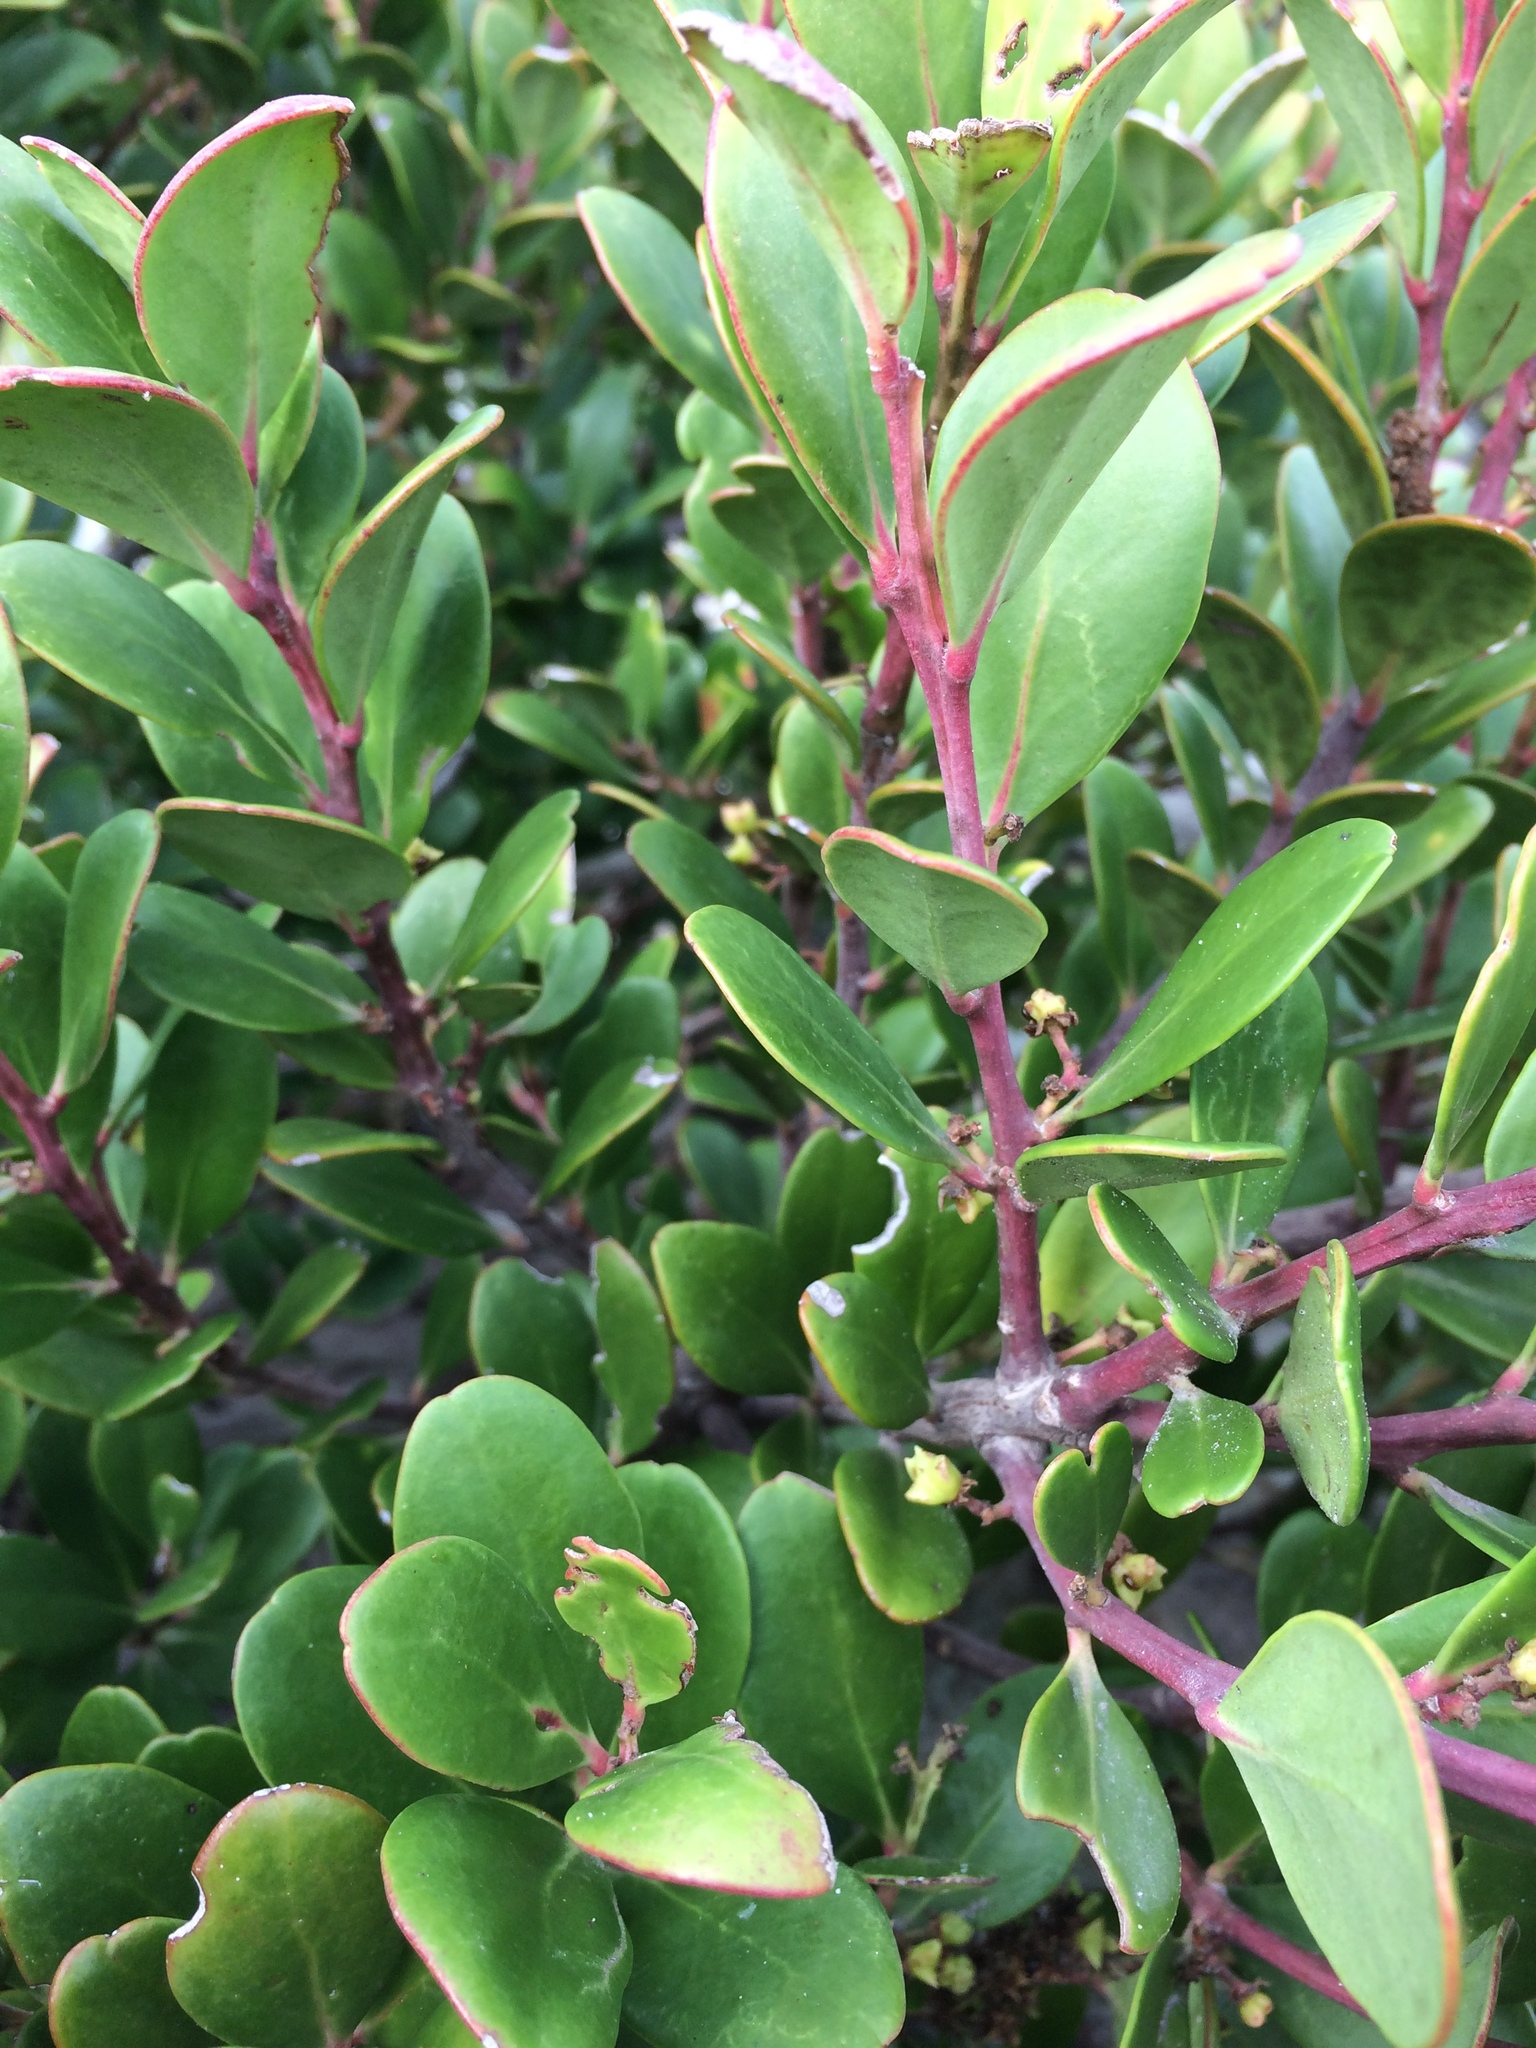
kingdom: Plantae
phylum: Tracheophyta
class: Magnoliopsida
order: Celastrales
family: Celastraceae
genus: Pterocelastrus
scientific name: Pterocelastrus tricuspidatus
